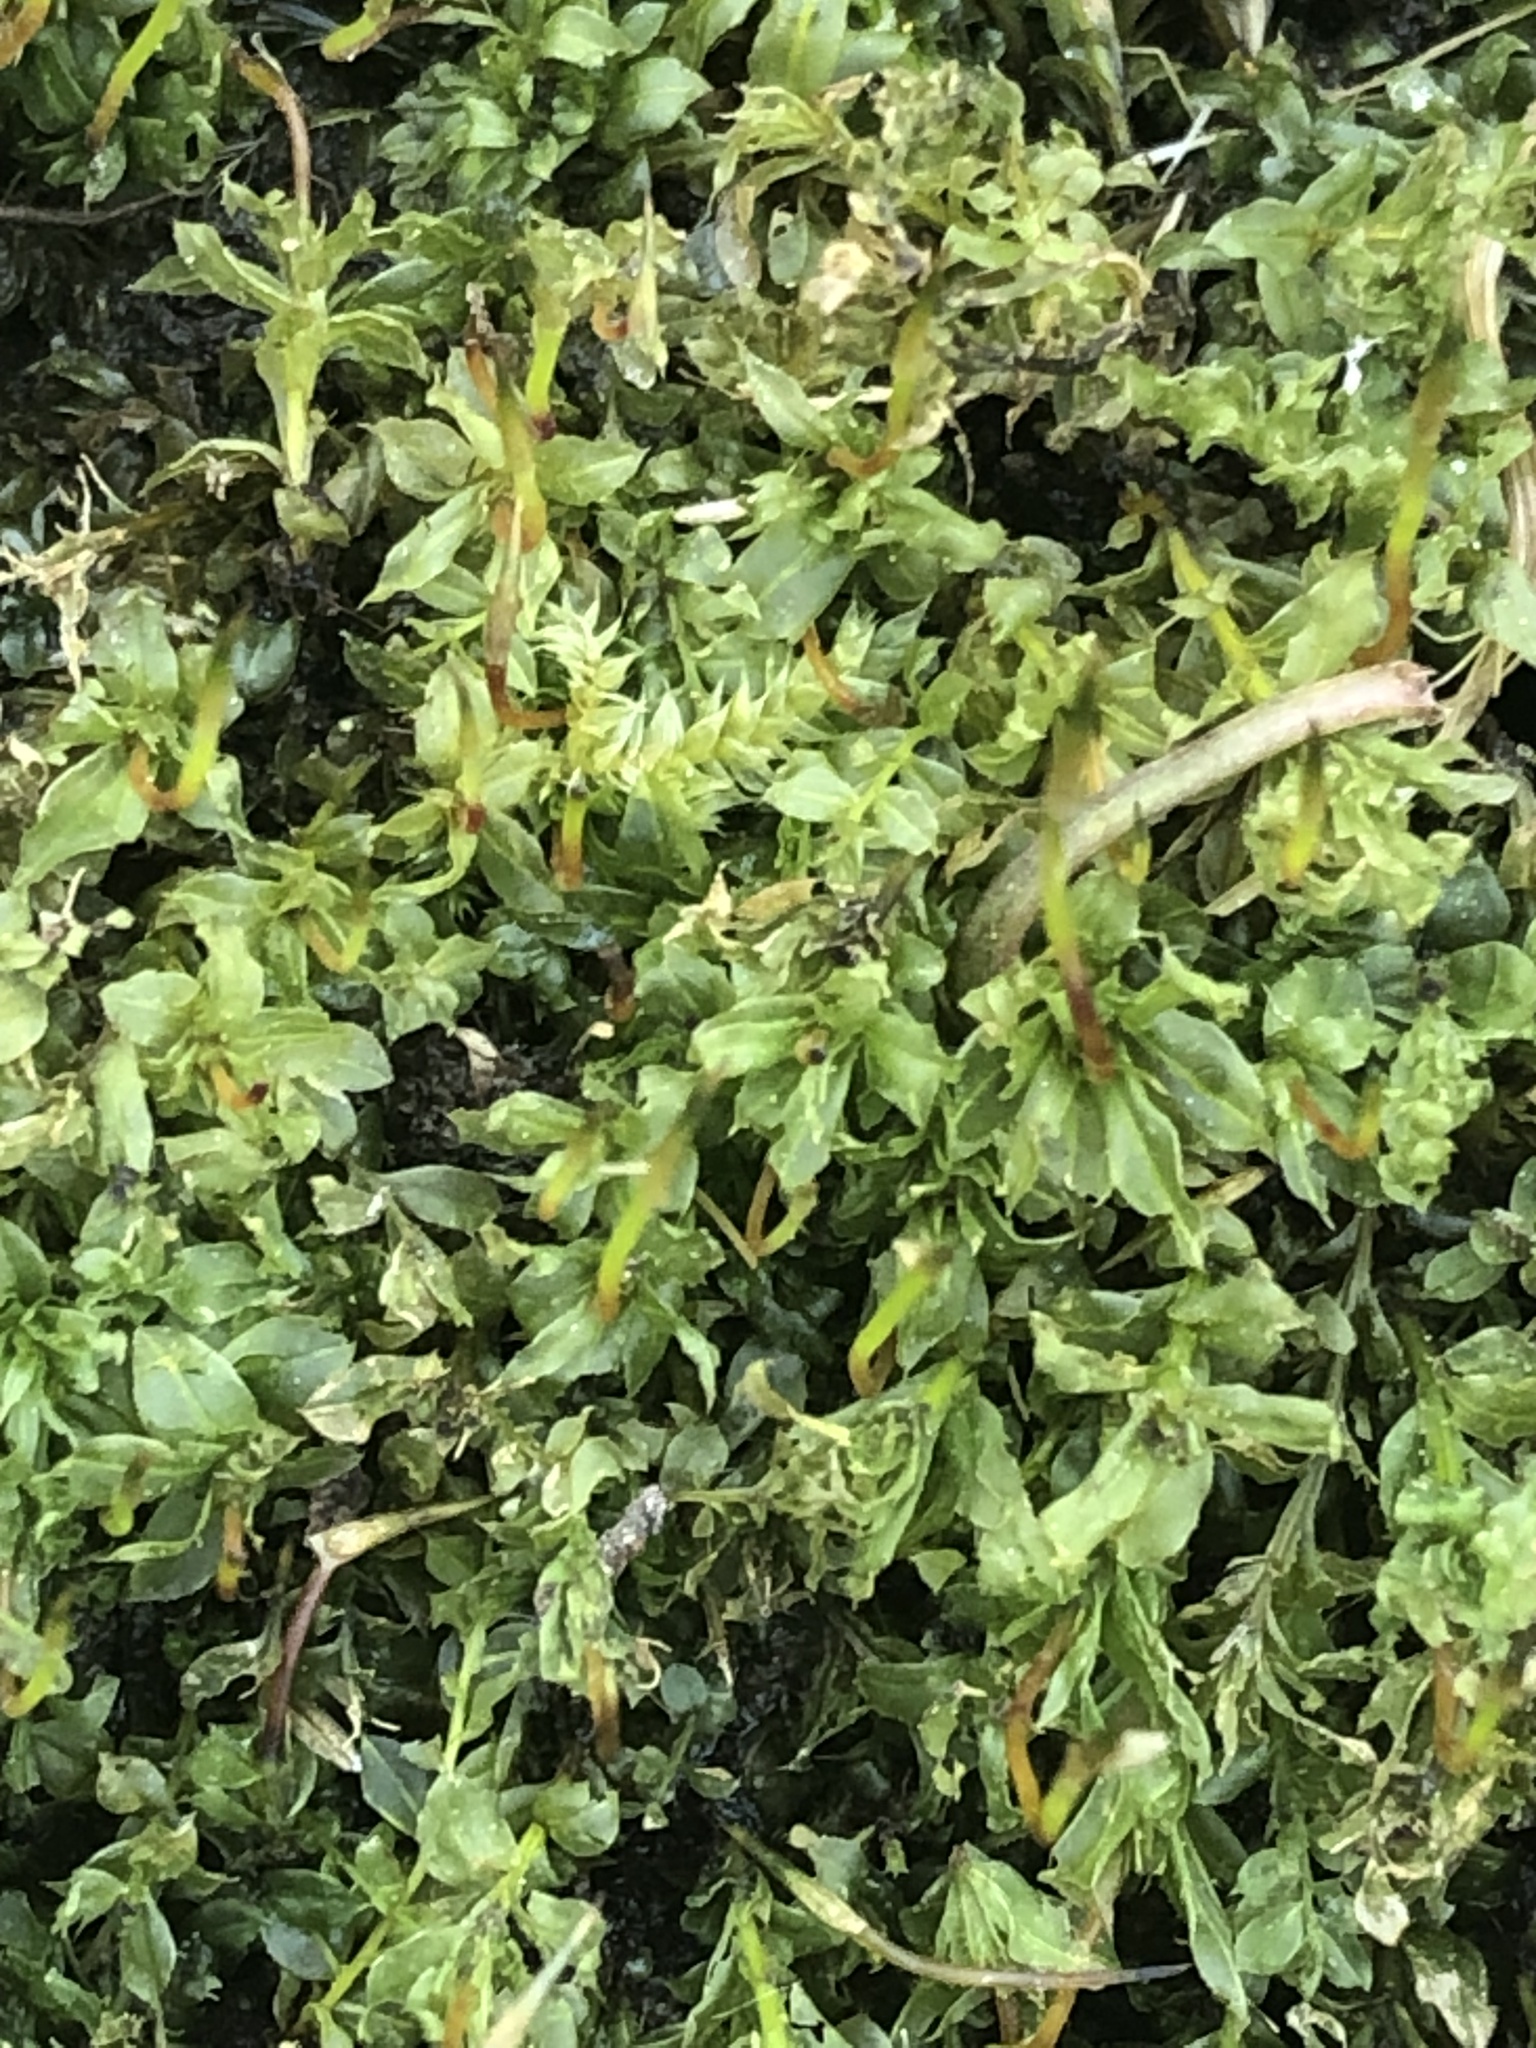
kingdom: Plantae
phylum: Bryophyta
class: Bryopsida
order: Bryales
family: Mniaceae
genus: Plagiomnium
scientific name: Plagiomnium cuspidatum
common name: Woodsy leafy moss
